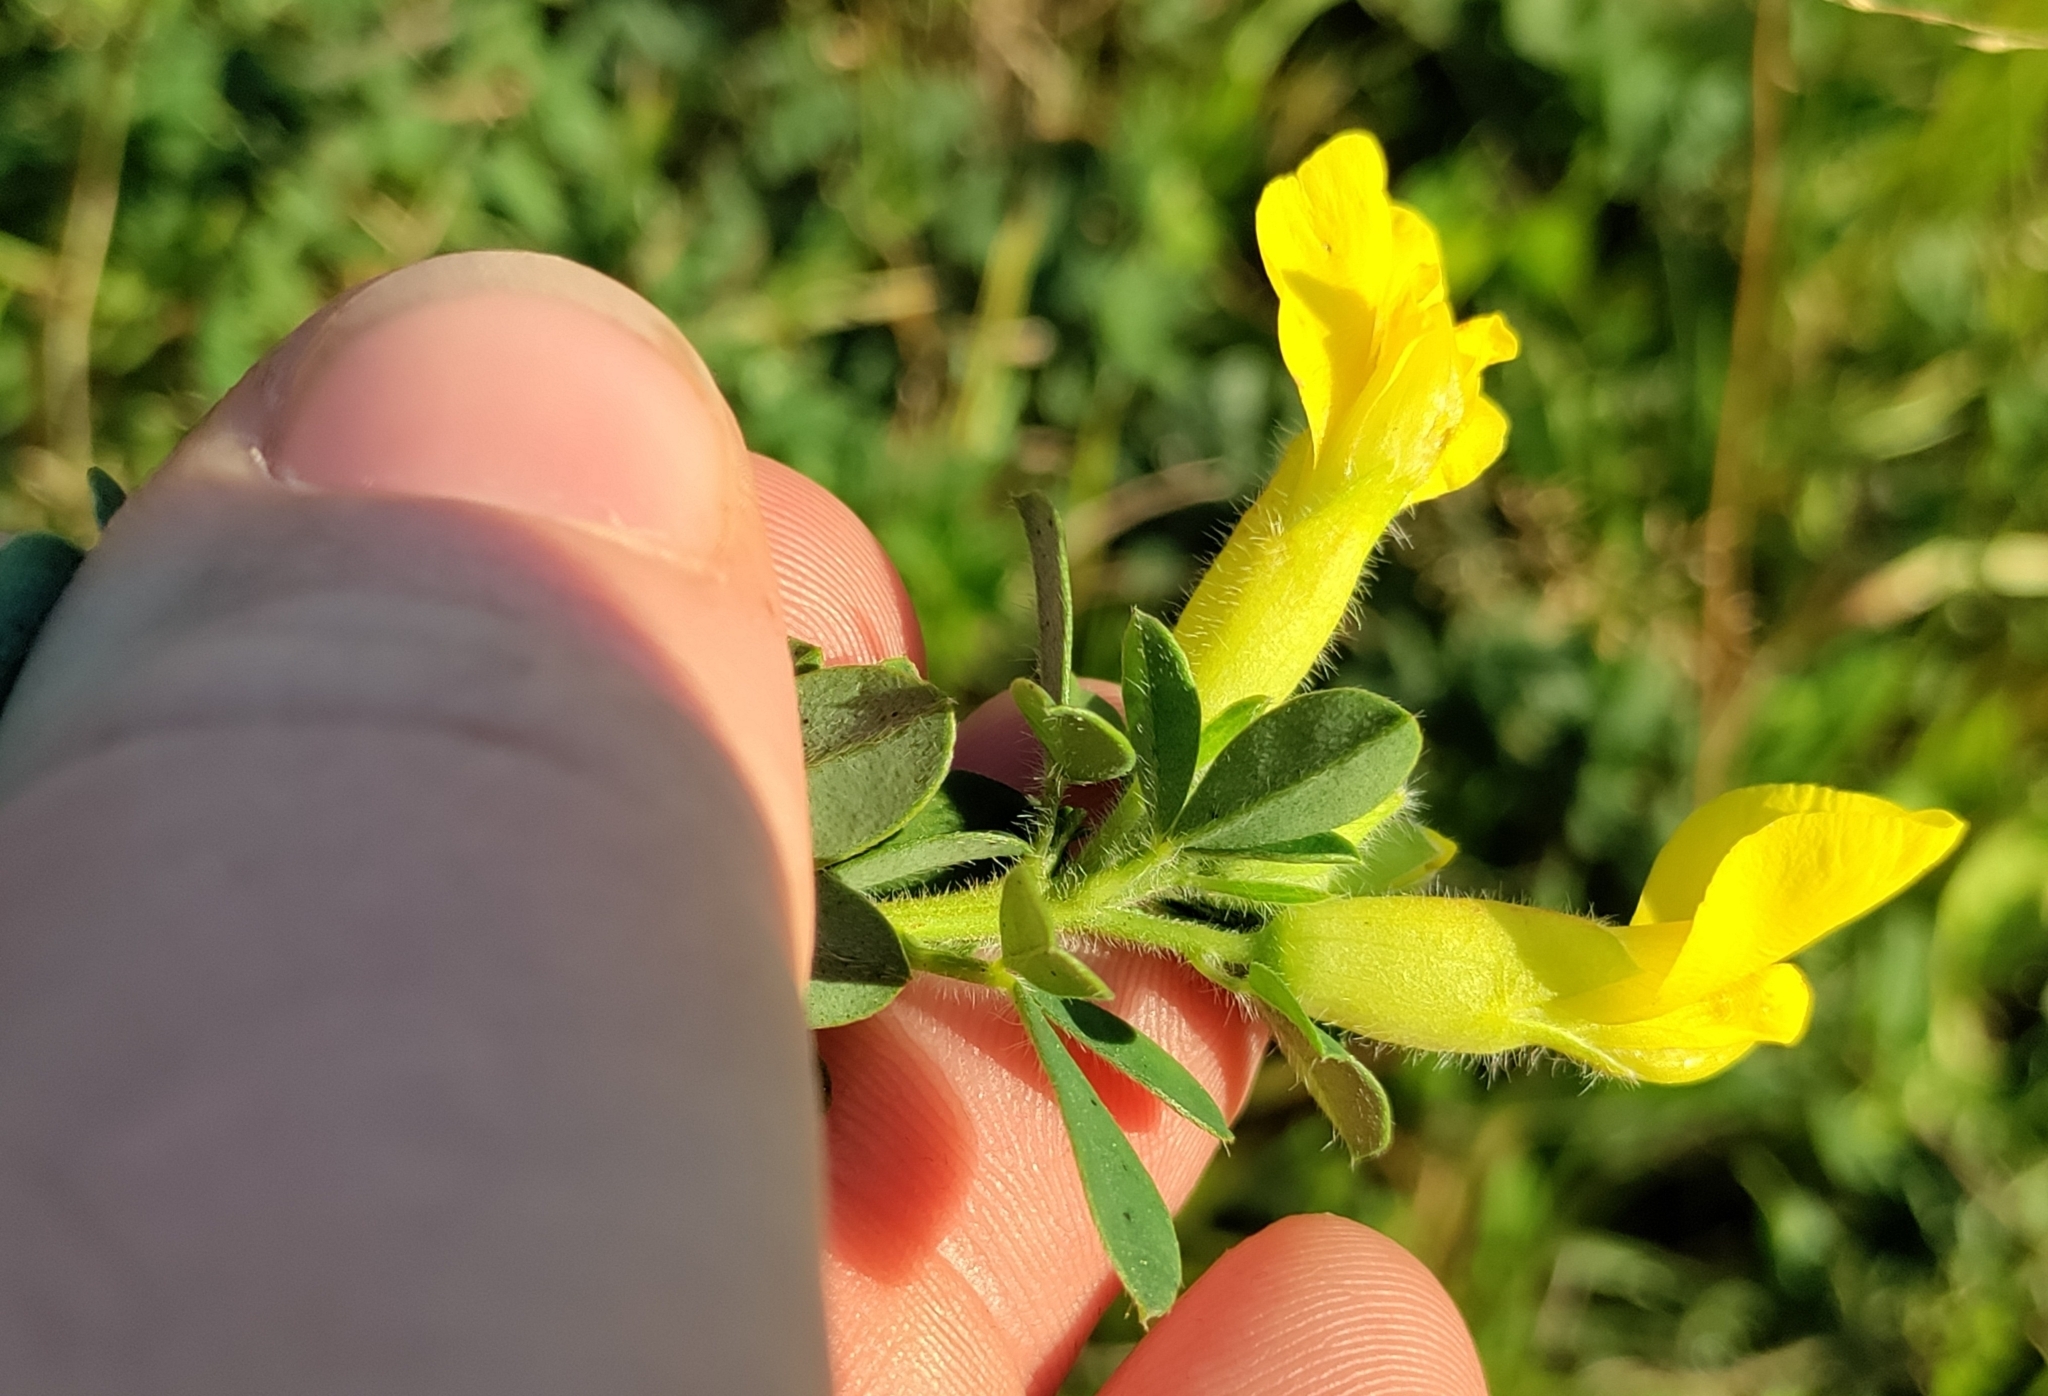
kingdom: Plantae
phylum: Tracheophyta
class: Magnoliopsida
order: Fabales
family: Fabaceae
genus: Chamaecytisus
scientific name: Chamaecytisus hirsutus
